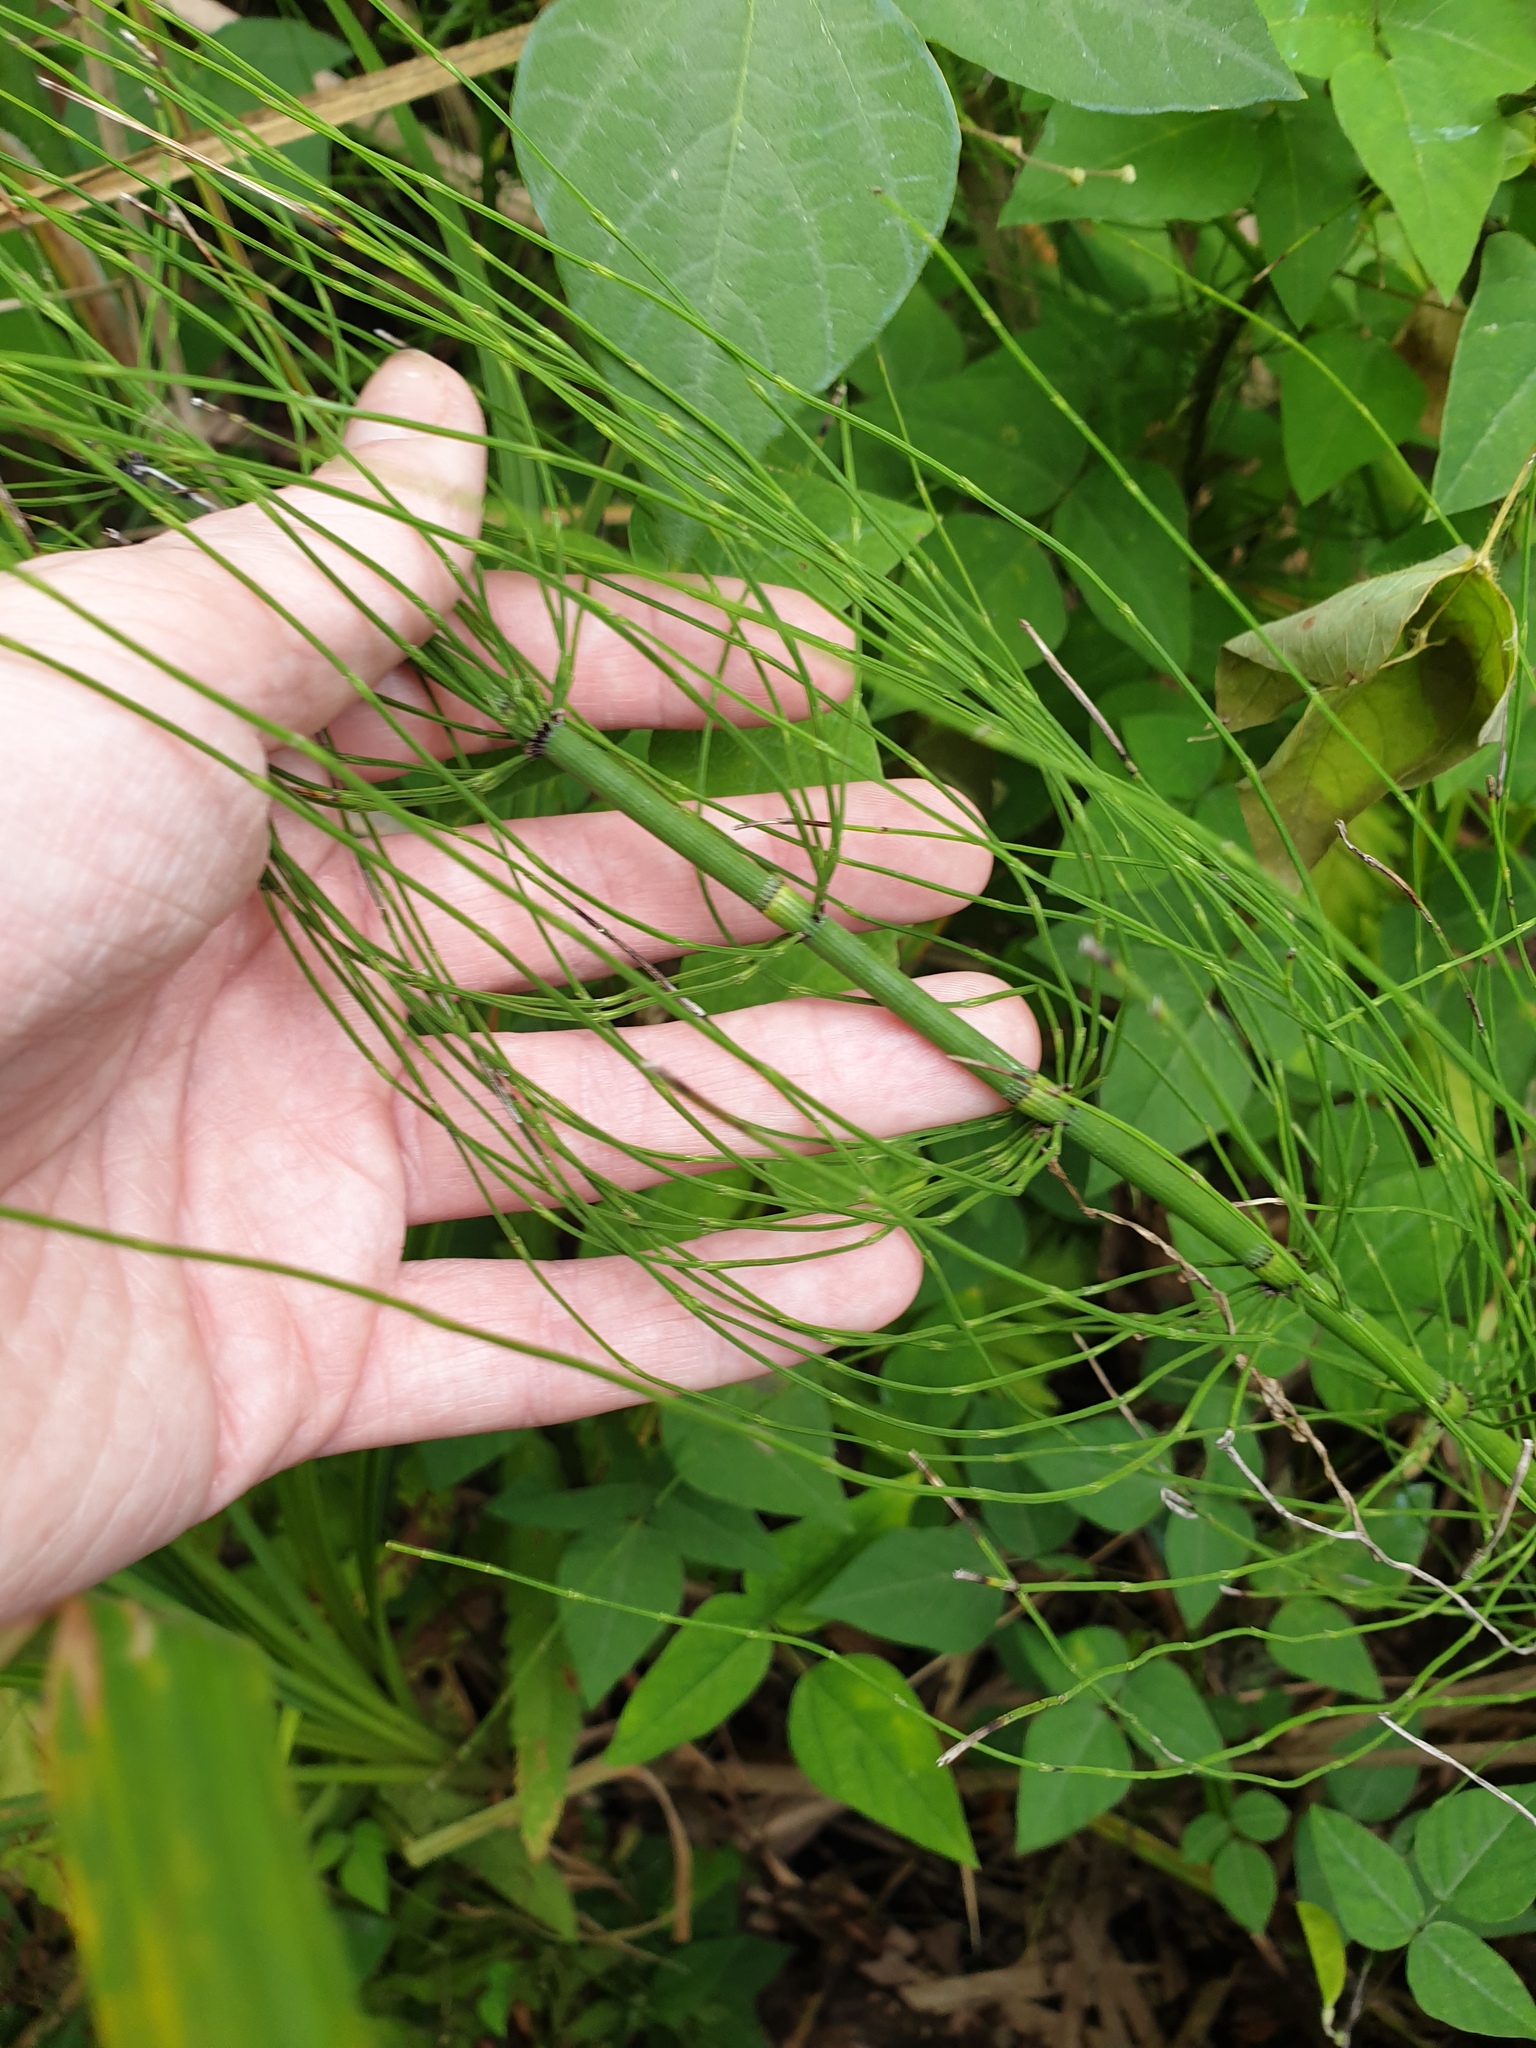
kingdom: Plantae
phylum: Tracheophyta
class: Polypodiopsida
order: Equisetales
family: Equisetaceae
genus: Equisetum
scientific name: Equisetum fluviatile
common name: Water horsetail
